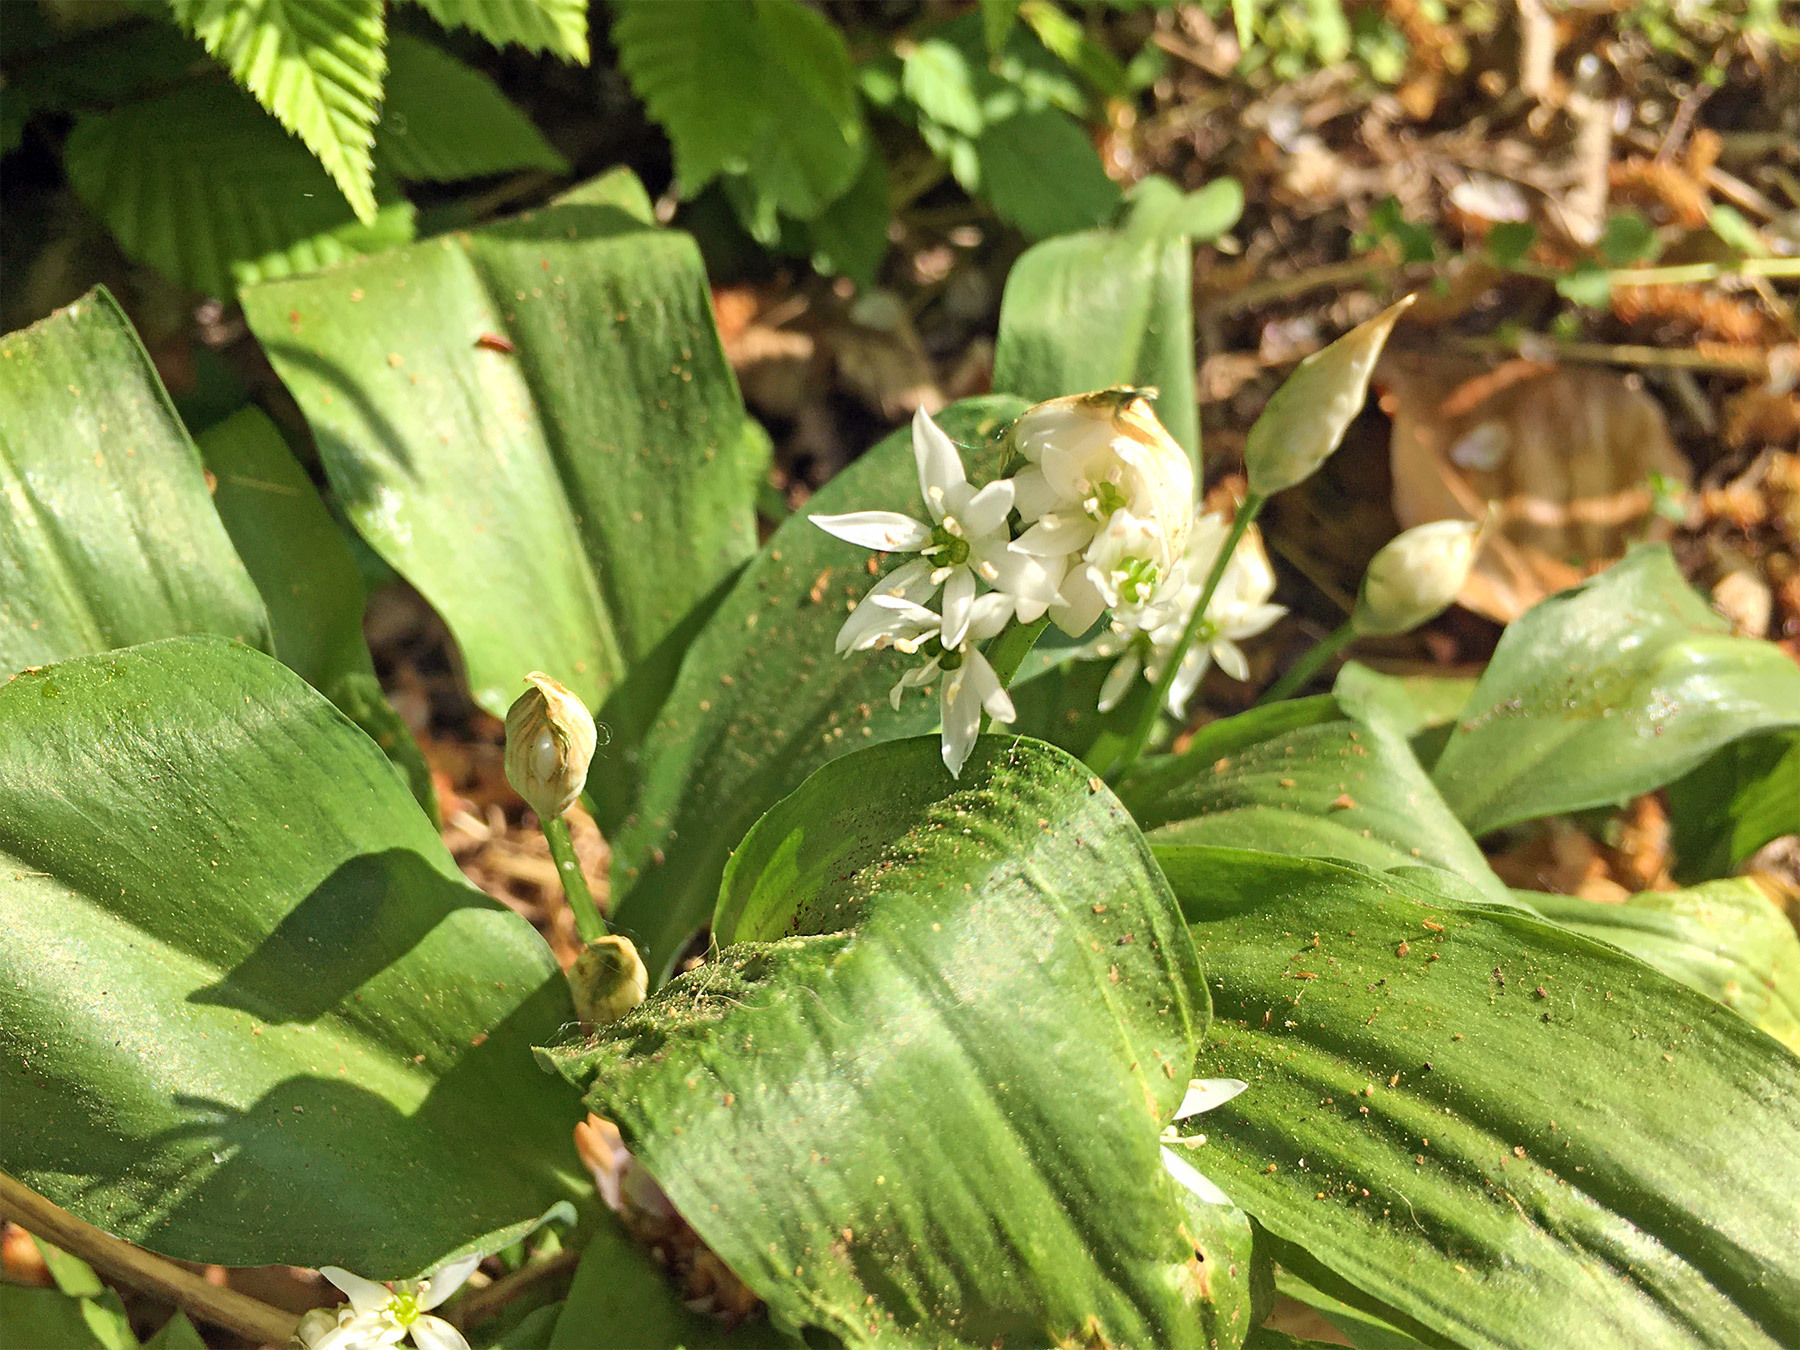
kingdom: Plantae
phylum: Tracheophyta
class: Liliopsida
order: Asparagales
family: Amaryllidaceae
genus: Allium
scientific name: Allium ursinum
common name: Ramsons
